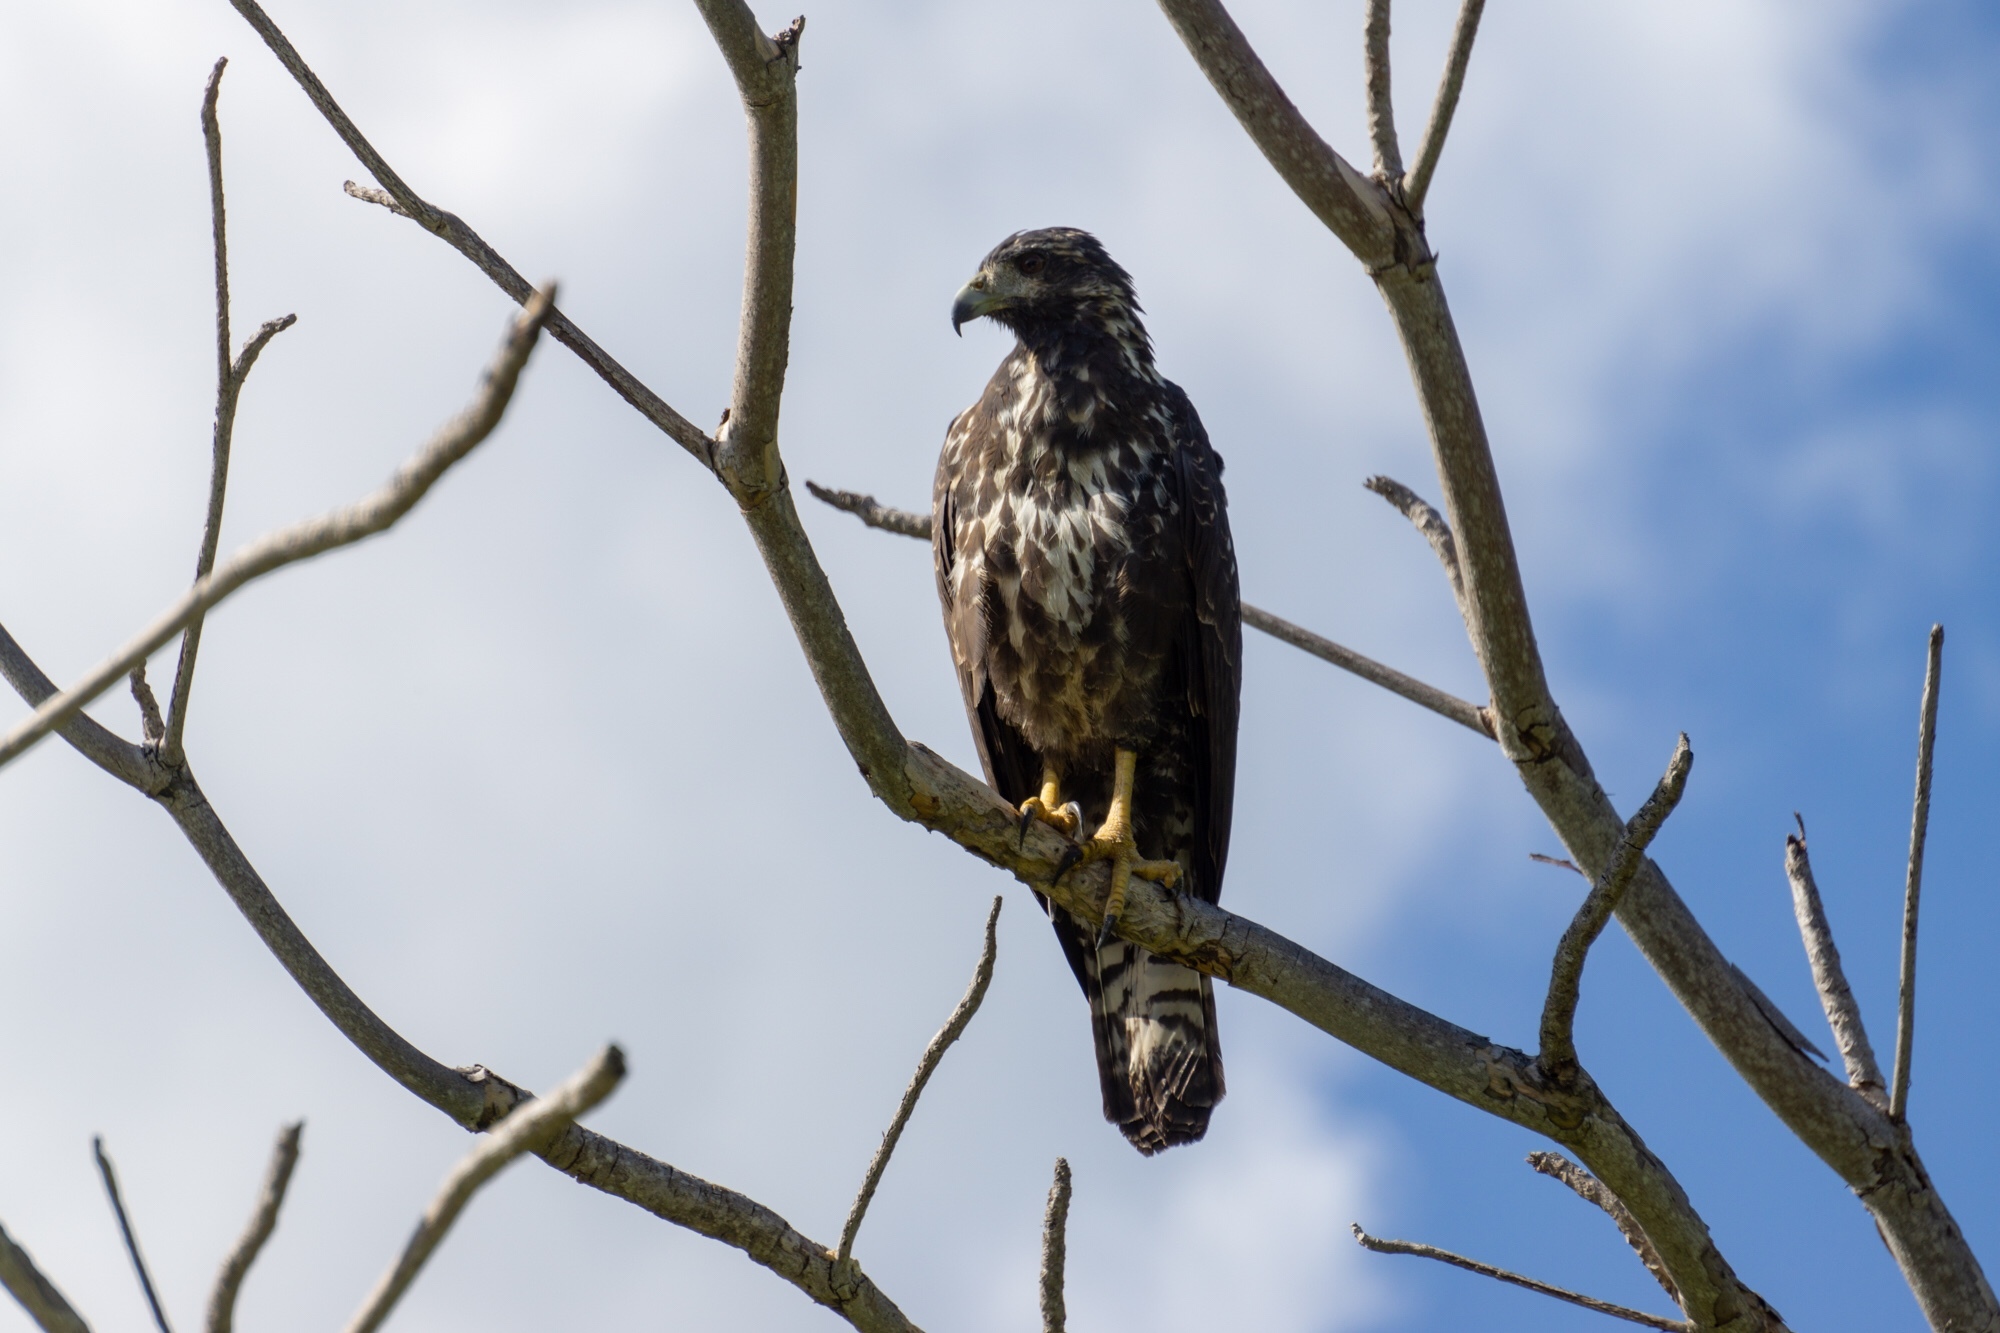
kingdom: Animalia
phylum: Chordata
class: Aves
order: Accipitriformes
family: Accipitridae
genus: Buteogallus
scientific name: Buteogallus anthracinus
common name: Common black hawk
